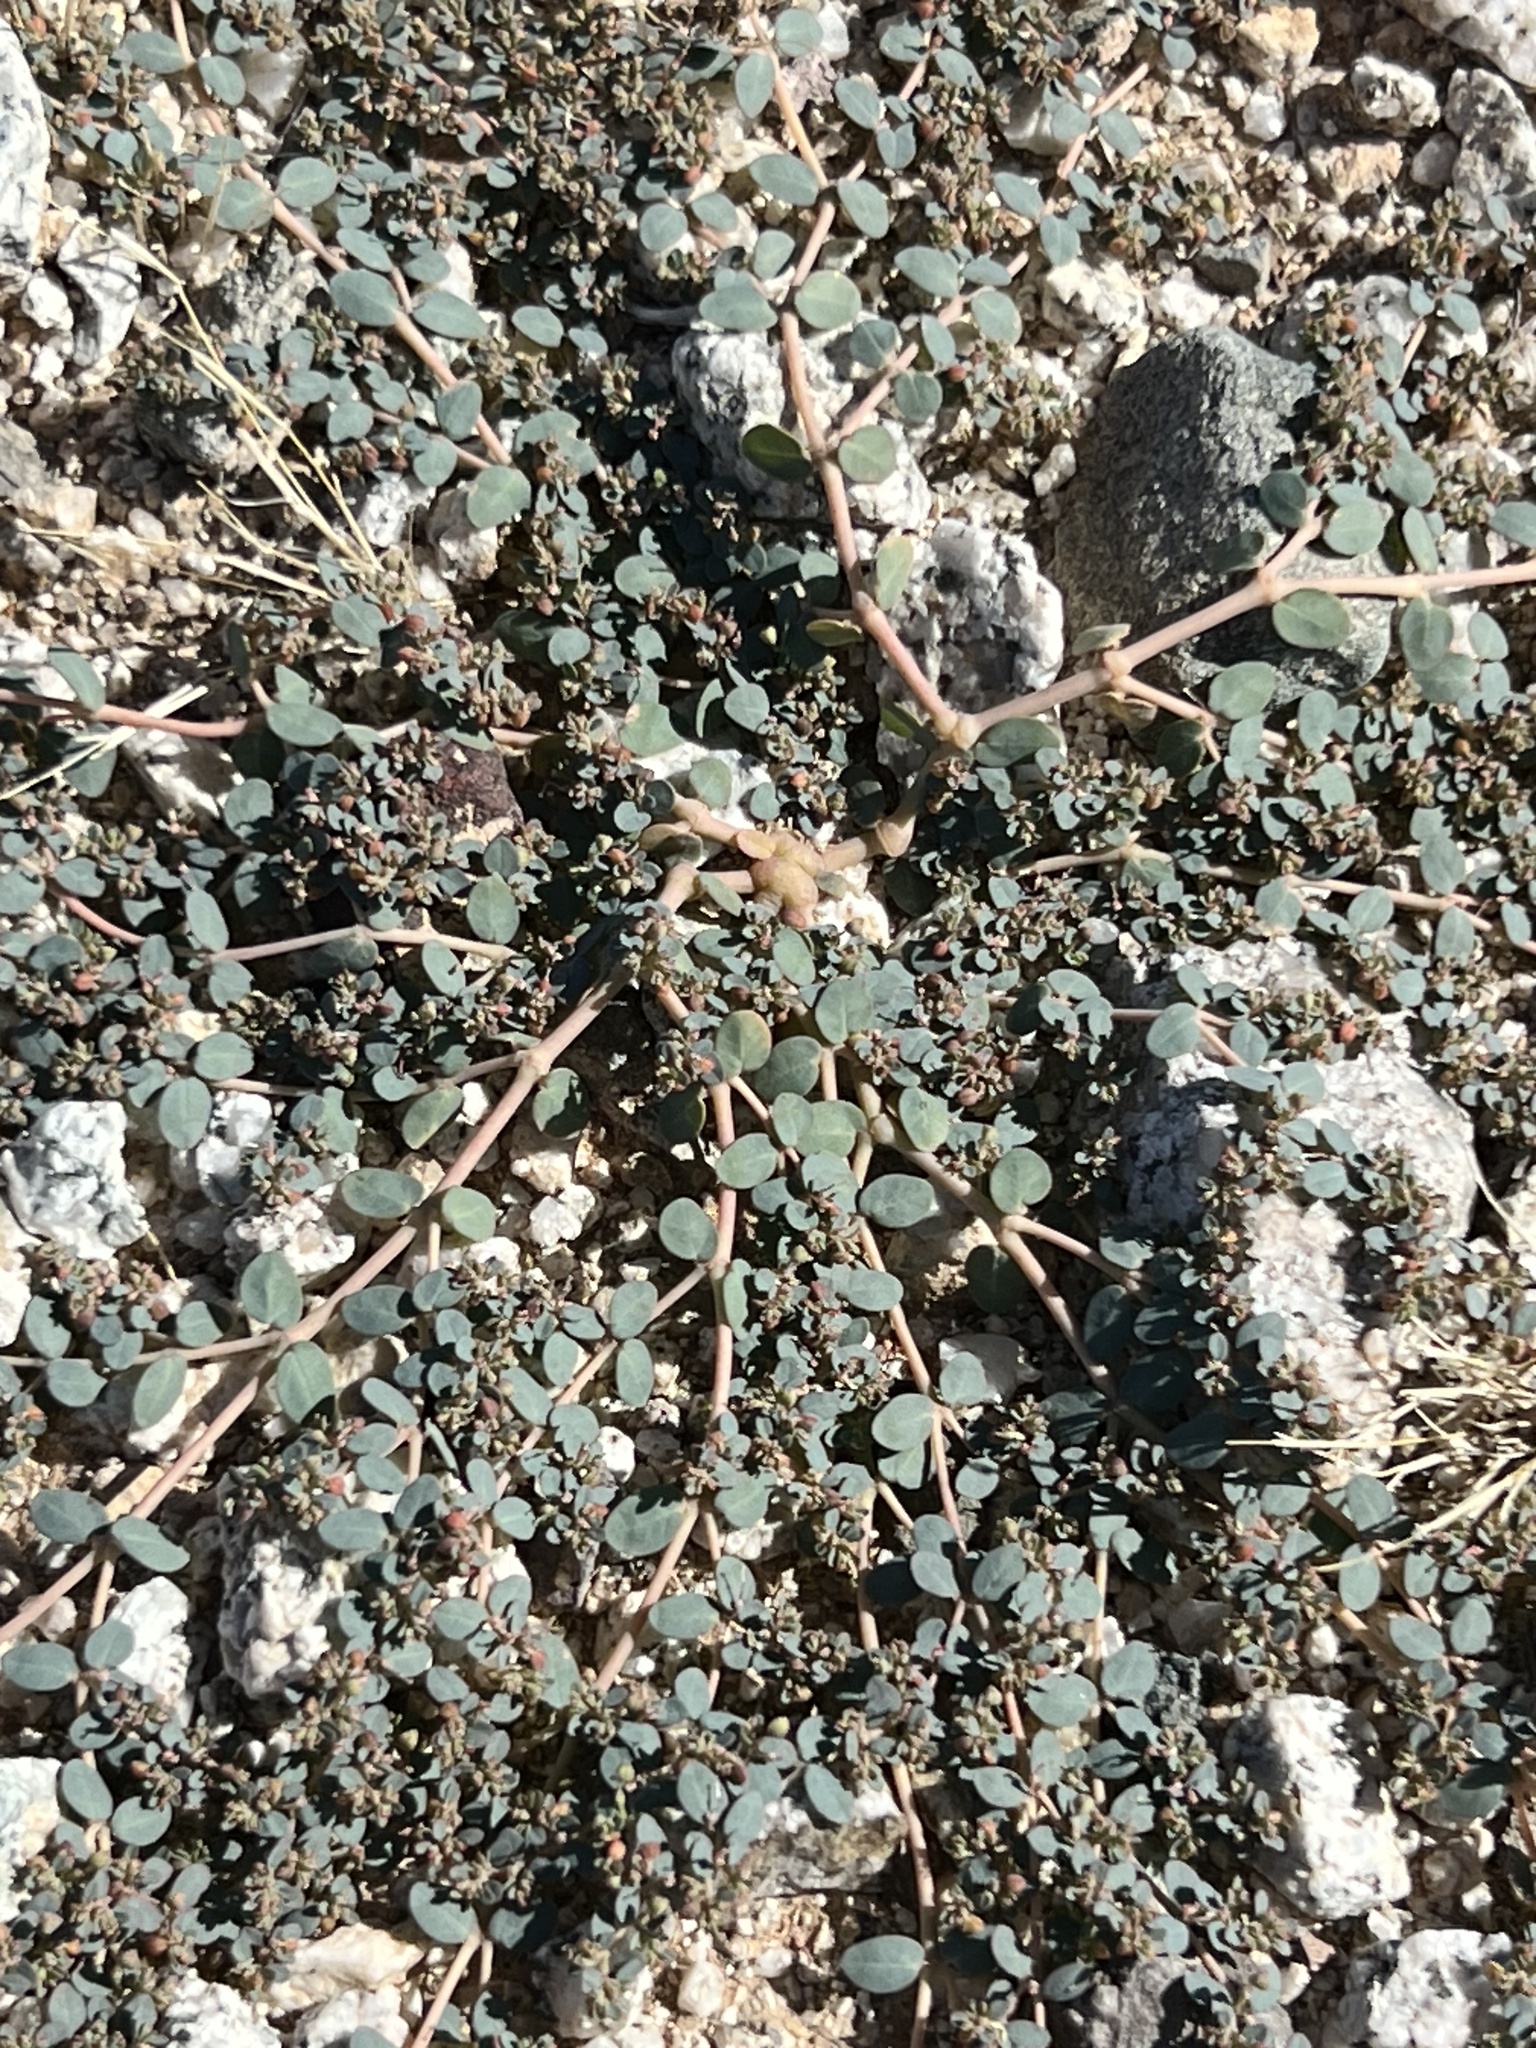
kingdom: Plantae
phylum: Tracheophyta
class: Magnoliopsida
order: Malpighiales
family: Euphorbiaceae
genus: Euphorbia
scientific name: Euphorbia micromera
